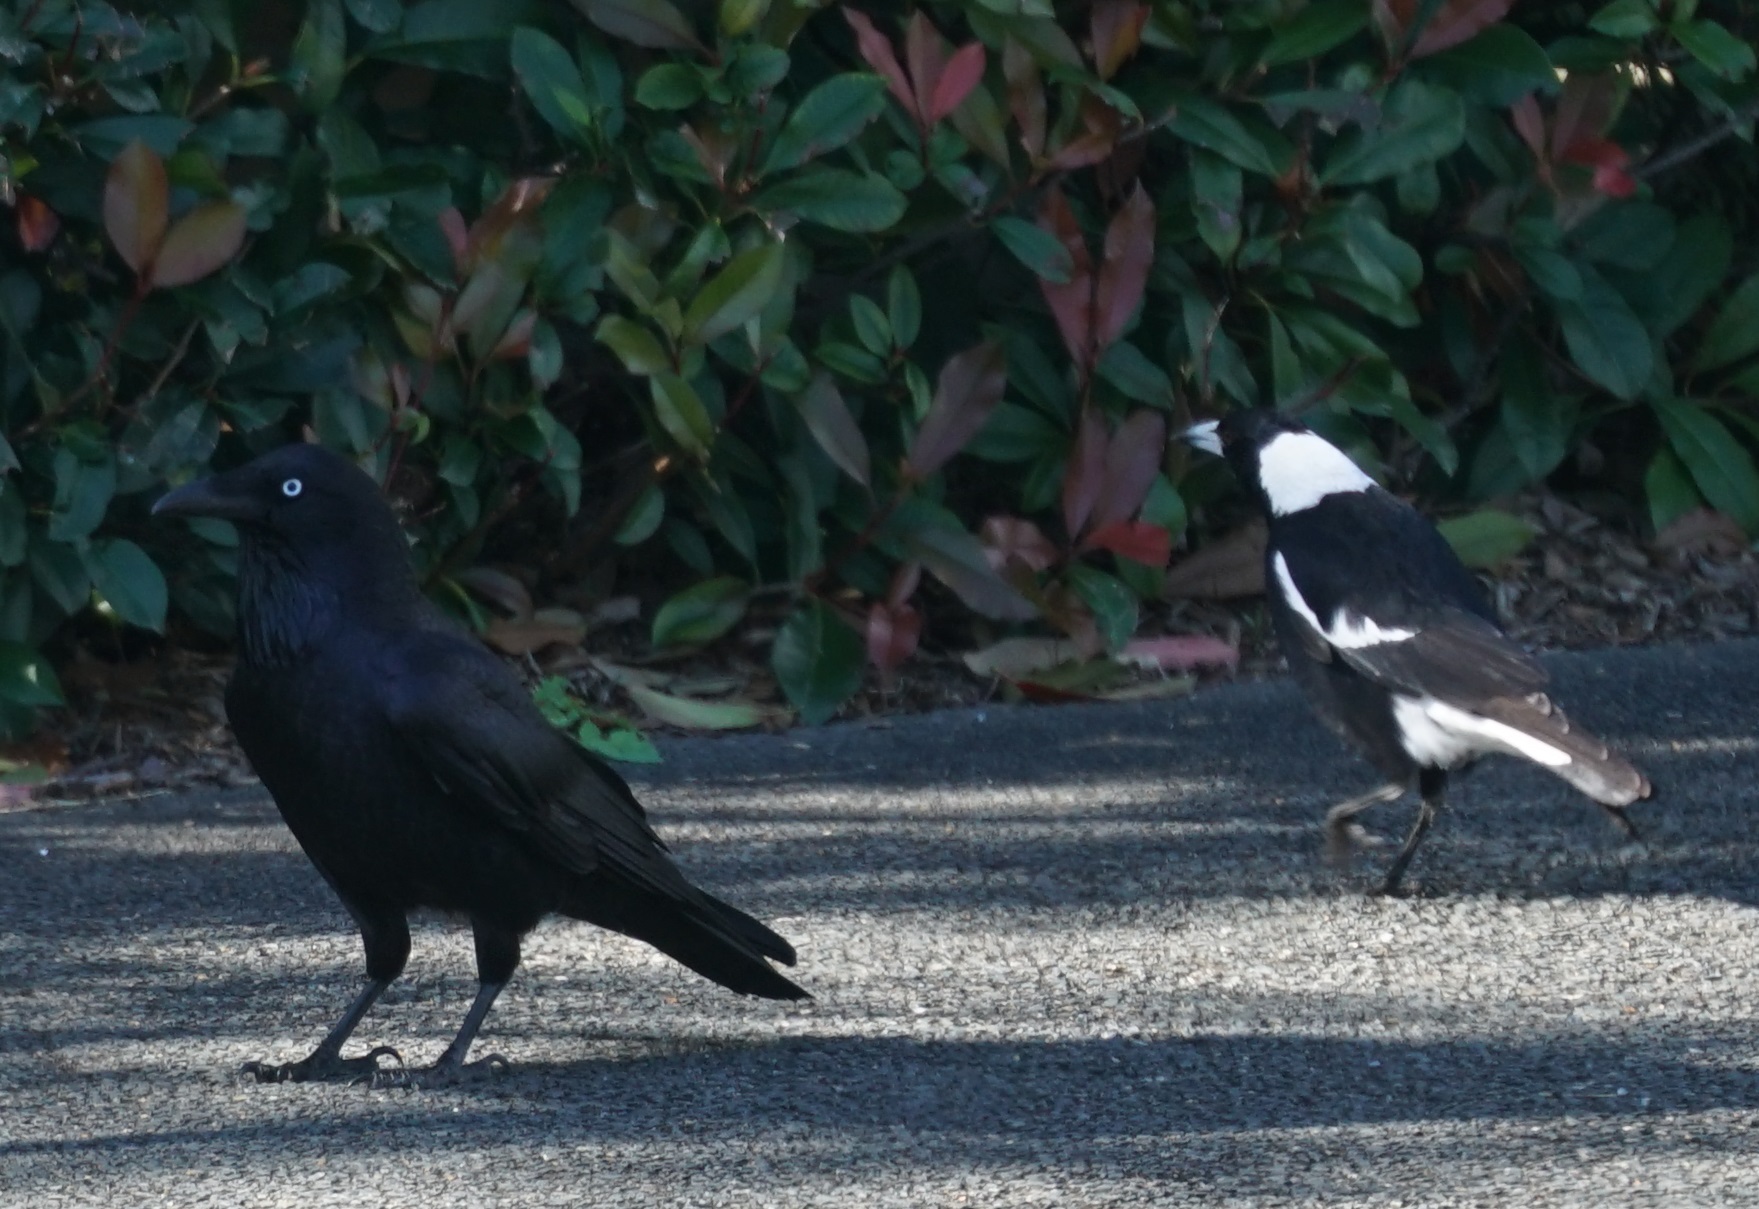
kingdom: Animalia
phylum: Chordata
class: Aves
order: Passeriformes
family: Cracticidae
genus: Gymnorhina
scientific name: Gymnorhina tibicen
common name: Australian magpie
